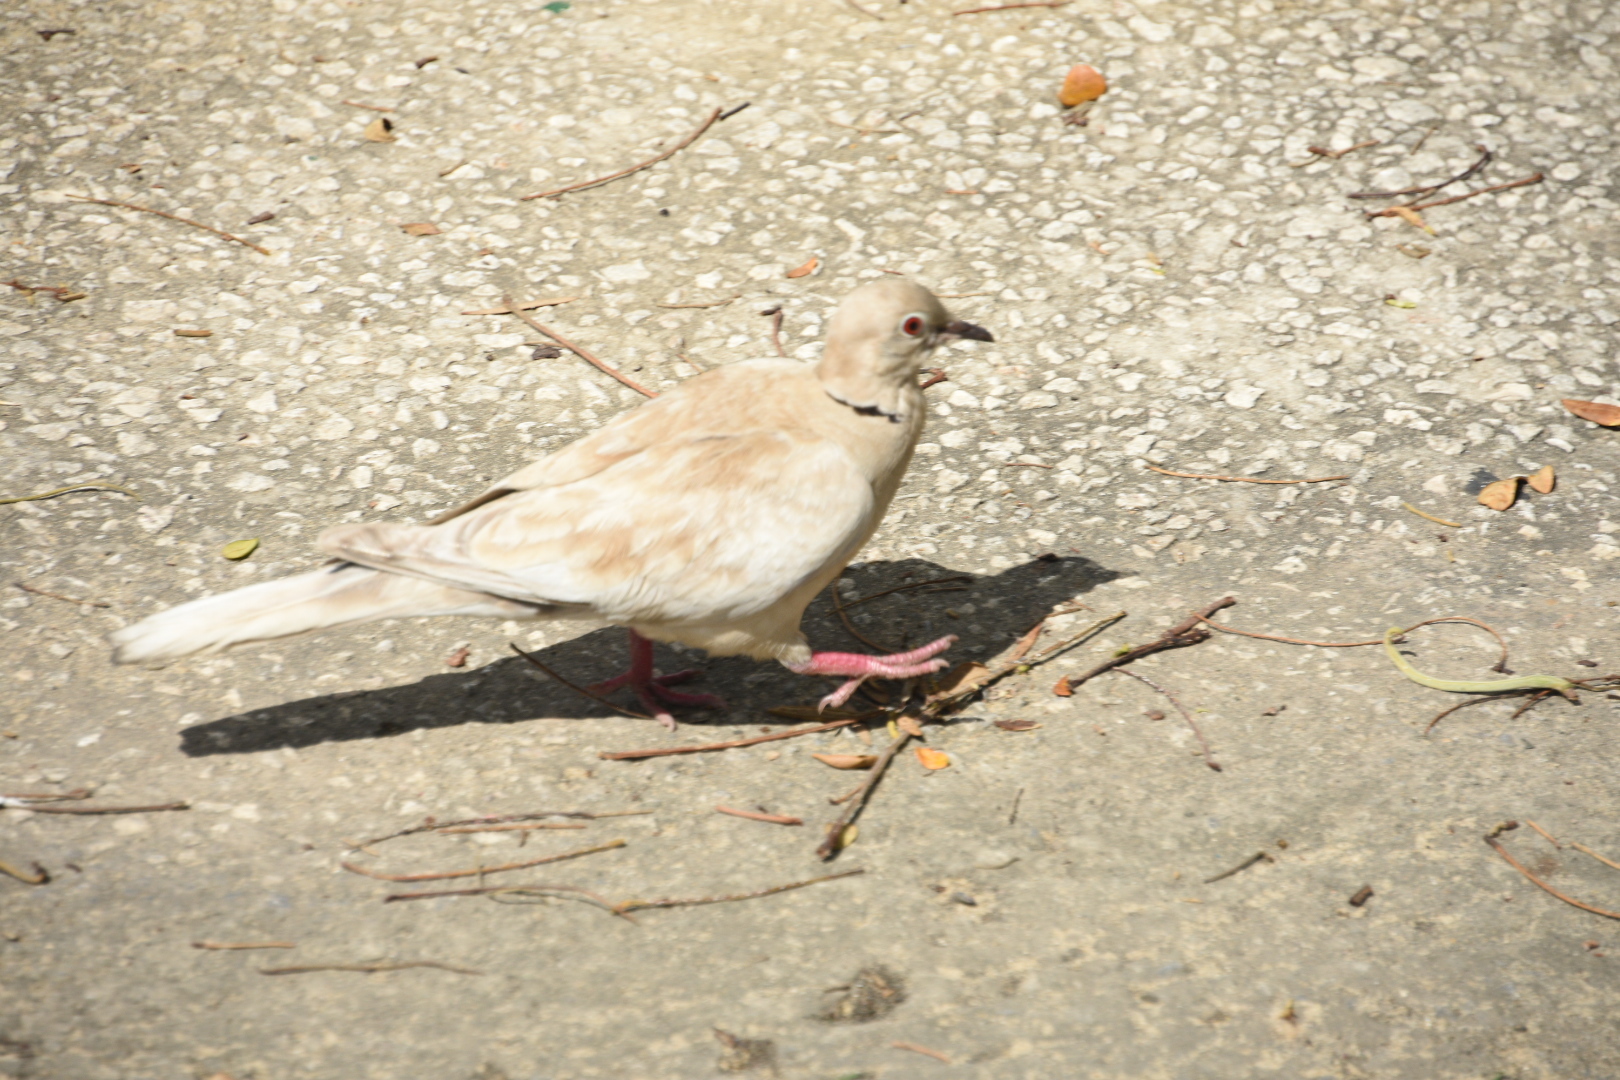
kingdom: Animalia
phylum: Chordata
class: Aves
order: Columbiformes
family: Columbidae
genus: Streptopelia
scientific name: Streptopelia decaocto
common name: Eurasian collared dove
